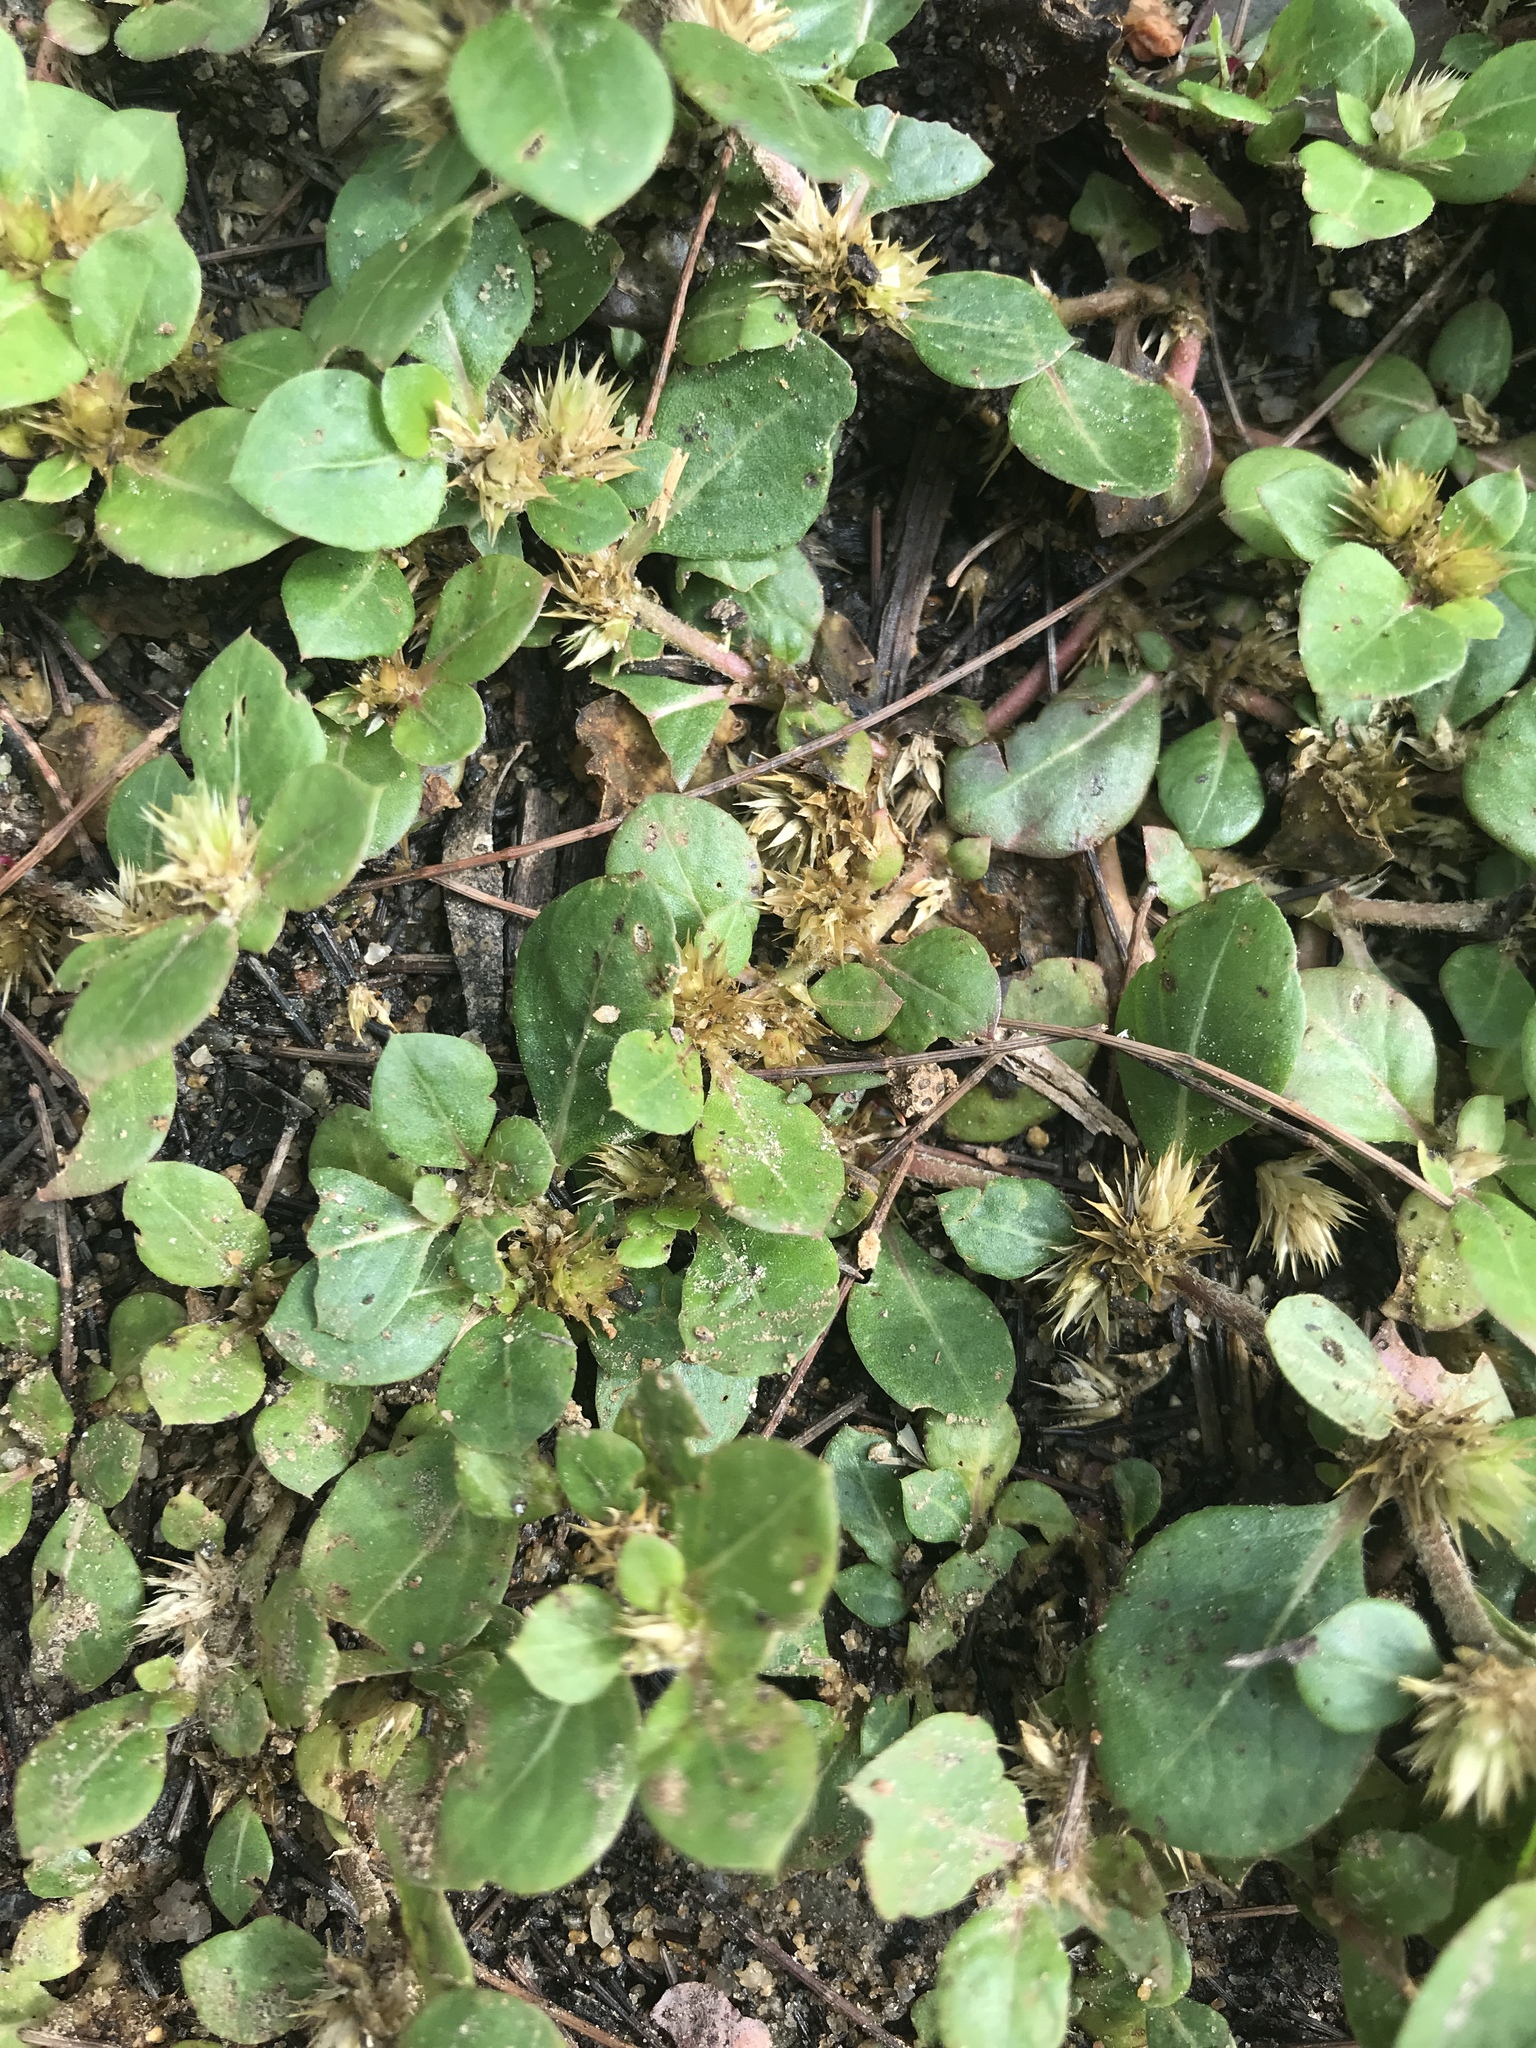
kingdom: Plantae
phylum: Tracheophyta
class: Magnoliopsida
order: Caryophyllales
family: Amaranthaceae
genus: Alternanthera
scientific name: Alternanthera pungens
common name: Khakiweed
